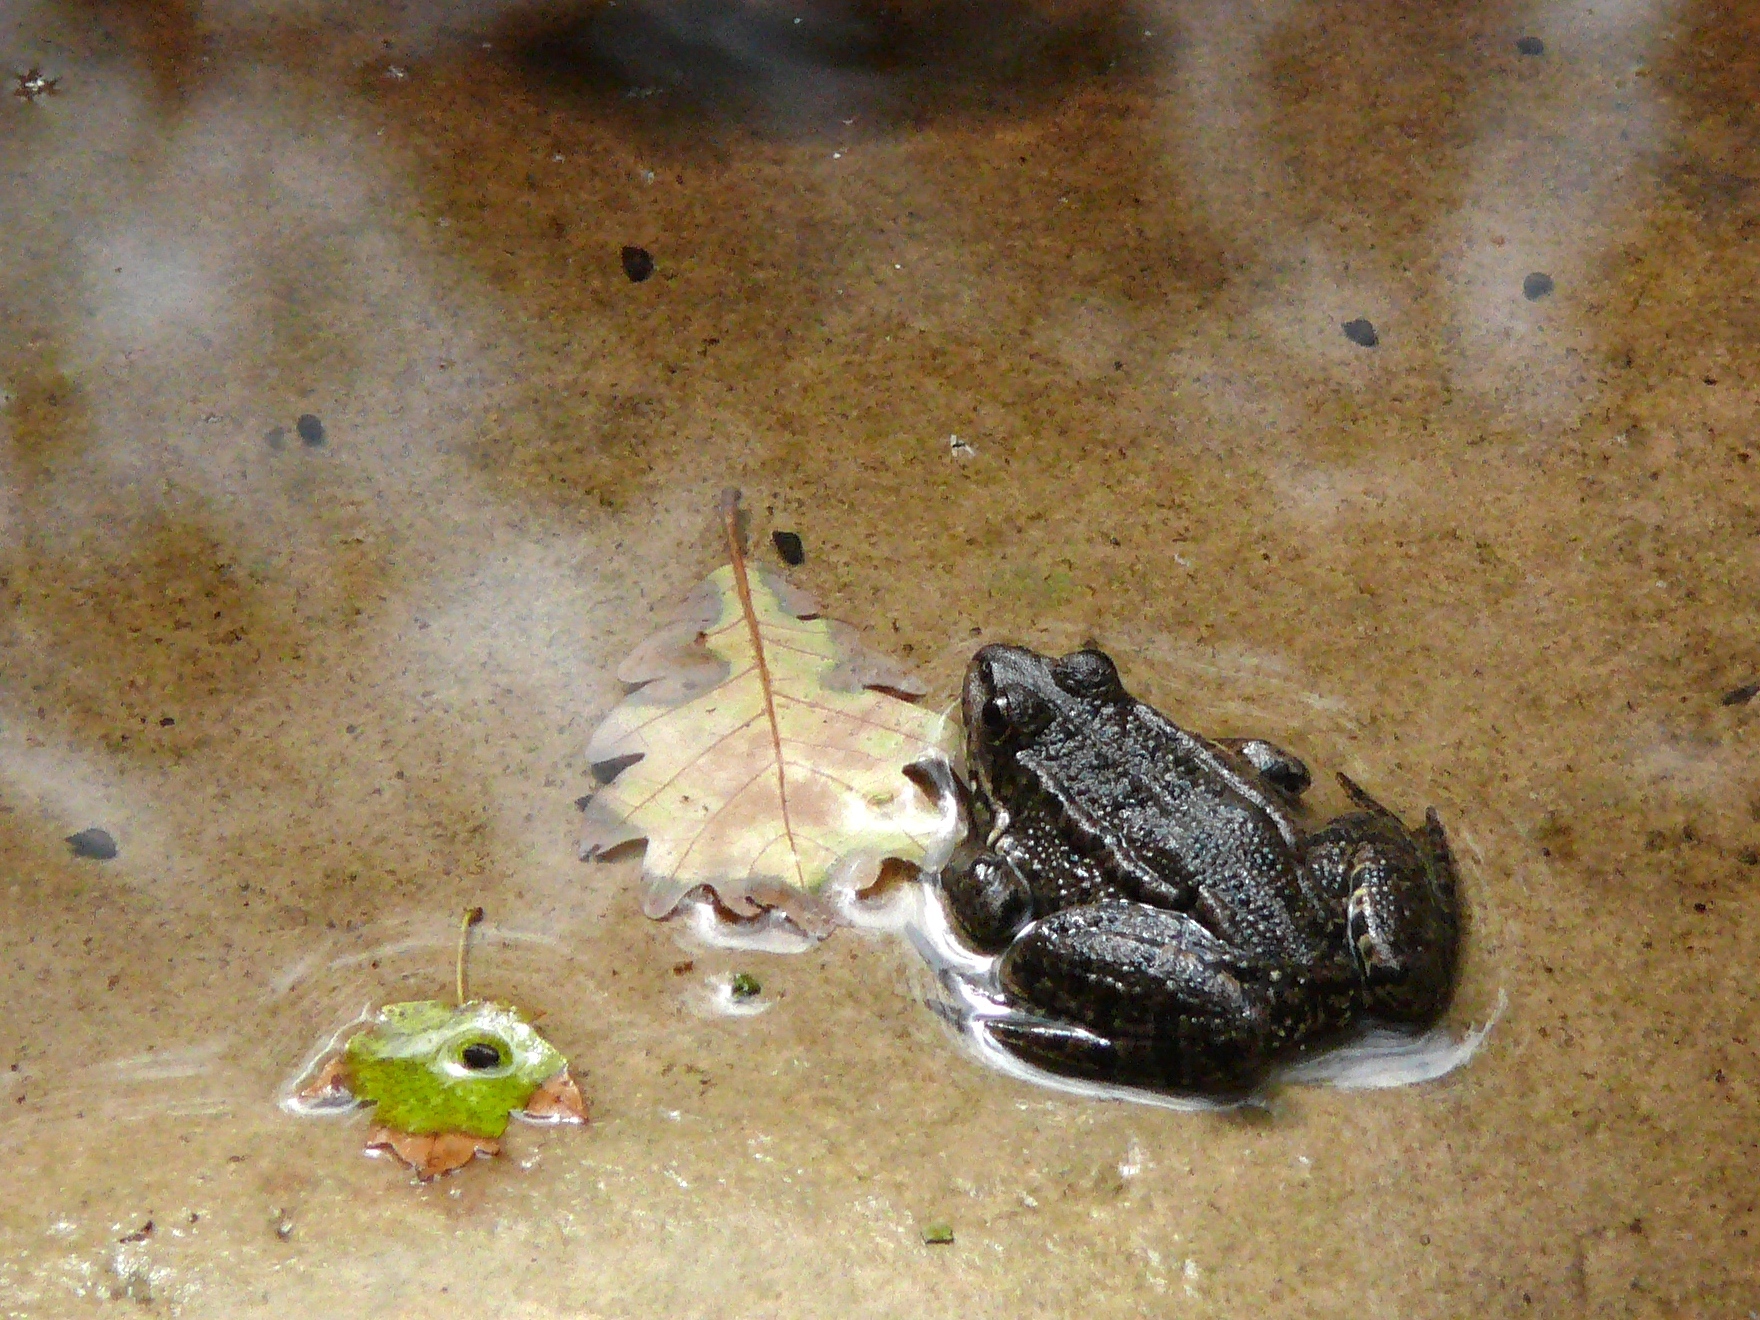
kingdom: Animalia
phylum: Chordata
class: Amphibia
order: Anura
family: Ranidae
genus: Pelophylax
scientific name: Pelophylax ridibundus
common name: Marsh frog
